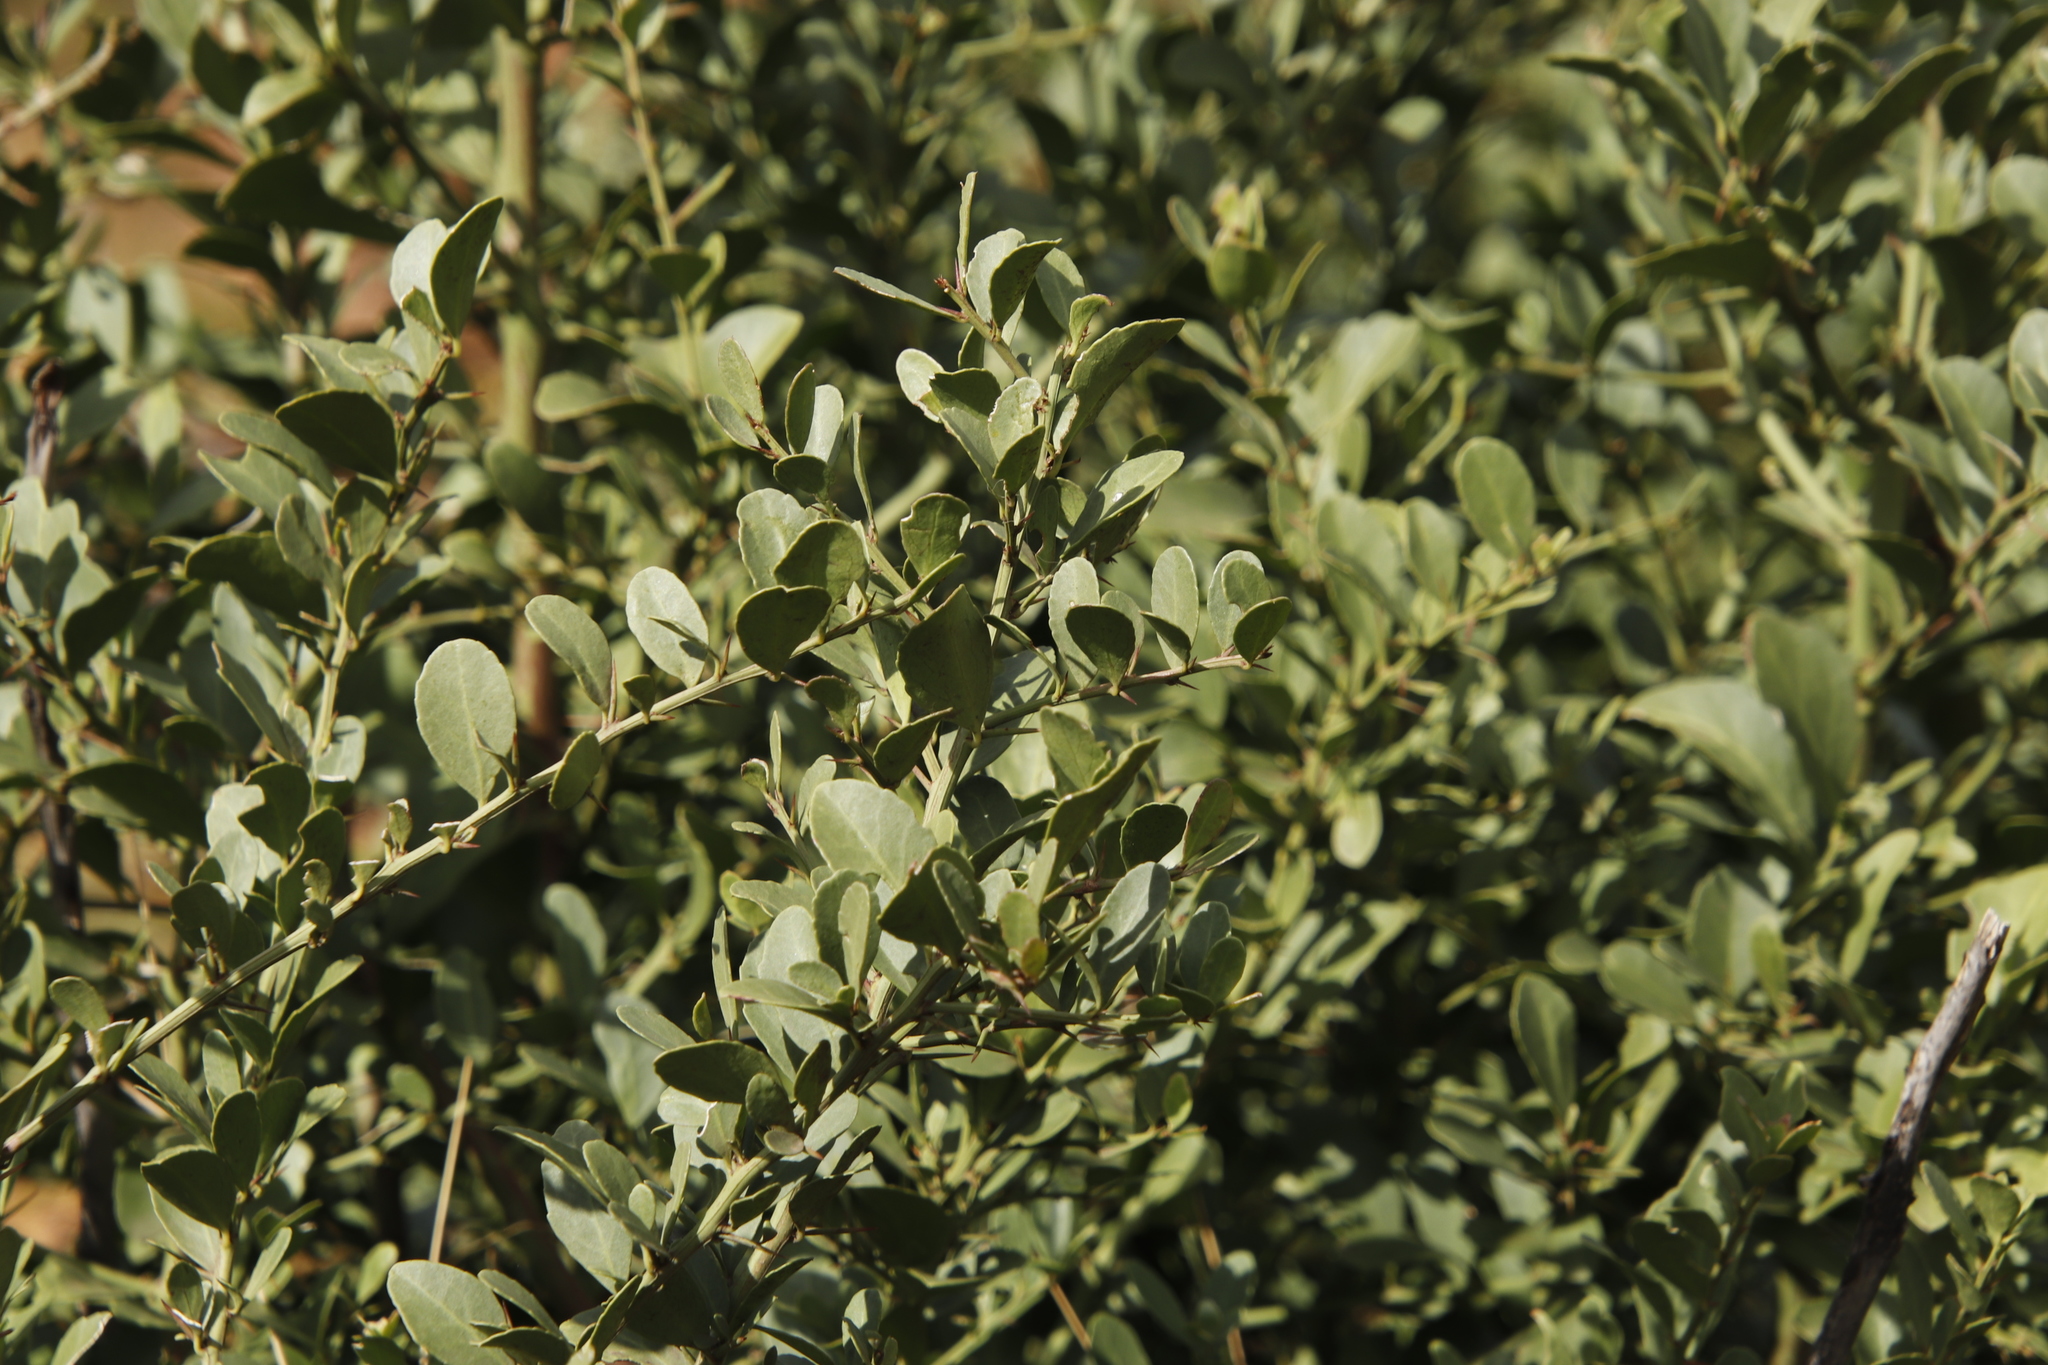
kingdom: Plantae
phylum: Tracheophyta
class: Magnoliopsida
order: Celastrales
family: Celastraceae
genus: Gymnosporia
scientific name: Gymnosporia buxifolia
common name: Common spike-thorn
